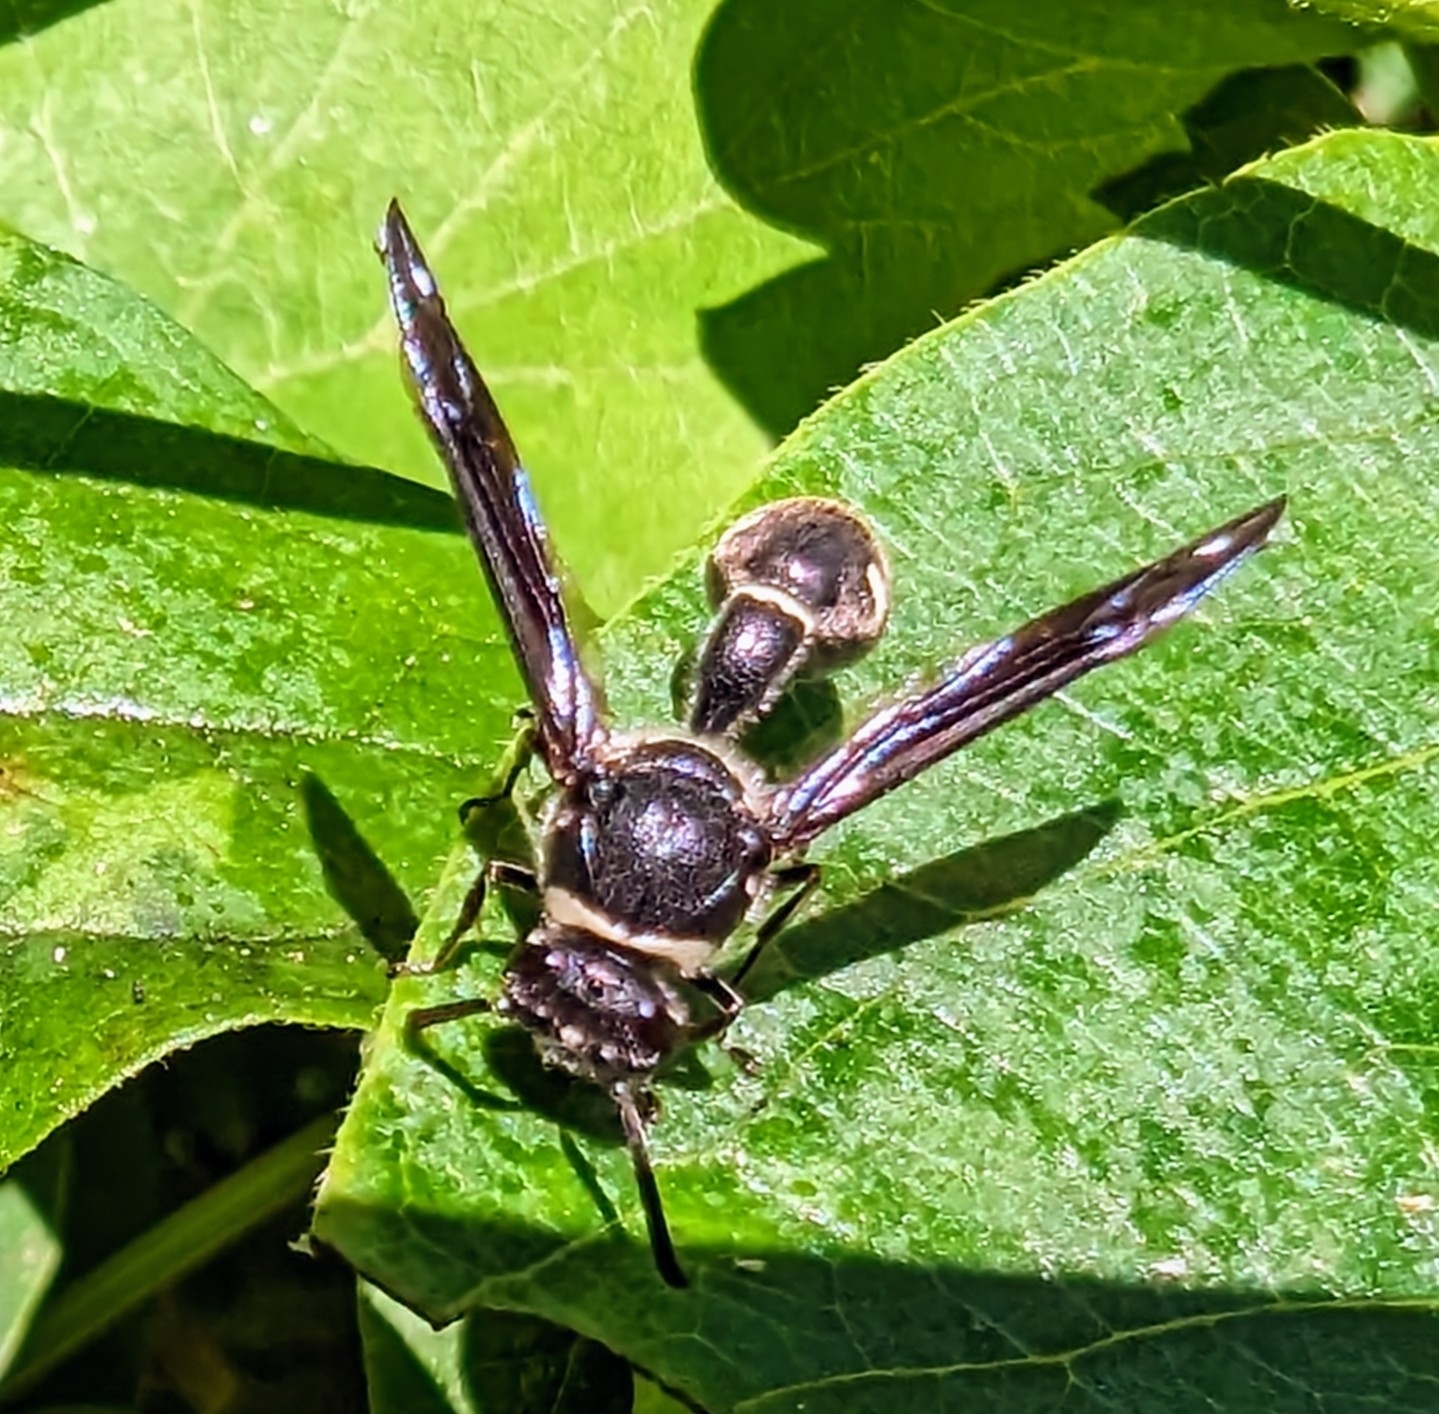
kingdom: Animalia
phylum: Arthropoda
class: Insecta
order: Hymenoptera
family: Vespidae
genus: Eumenes
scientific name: Eumenes fraternus
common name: Fraternal potter wasp
